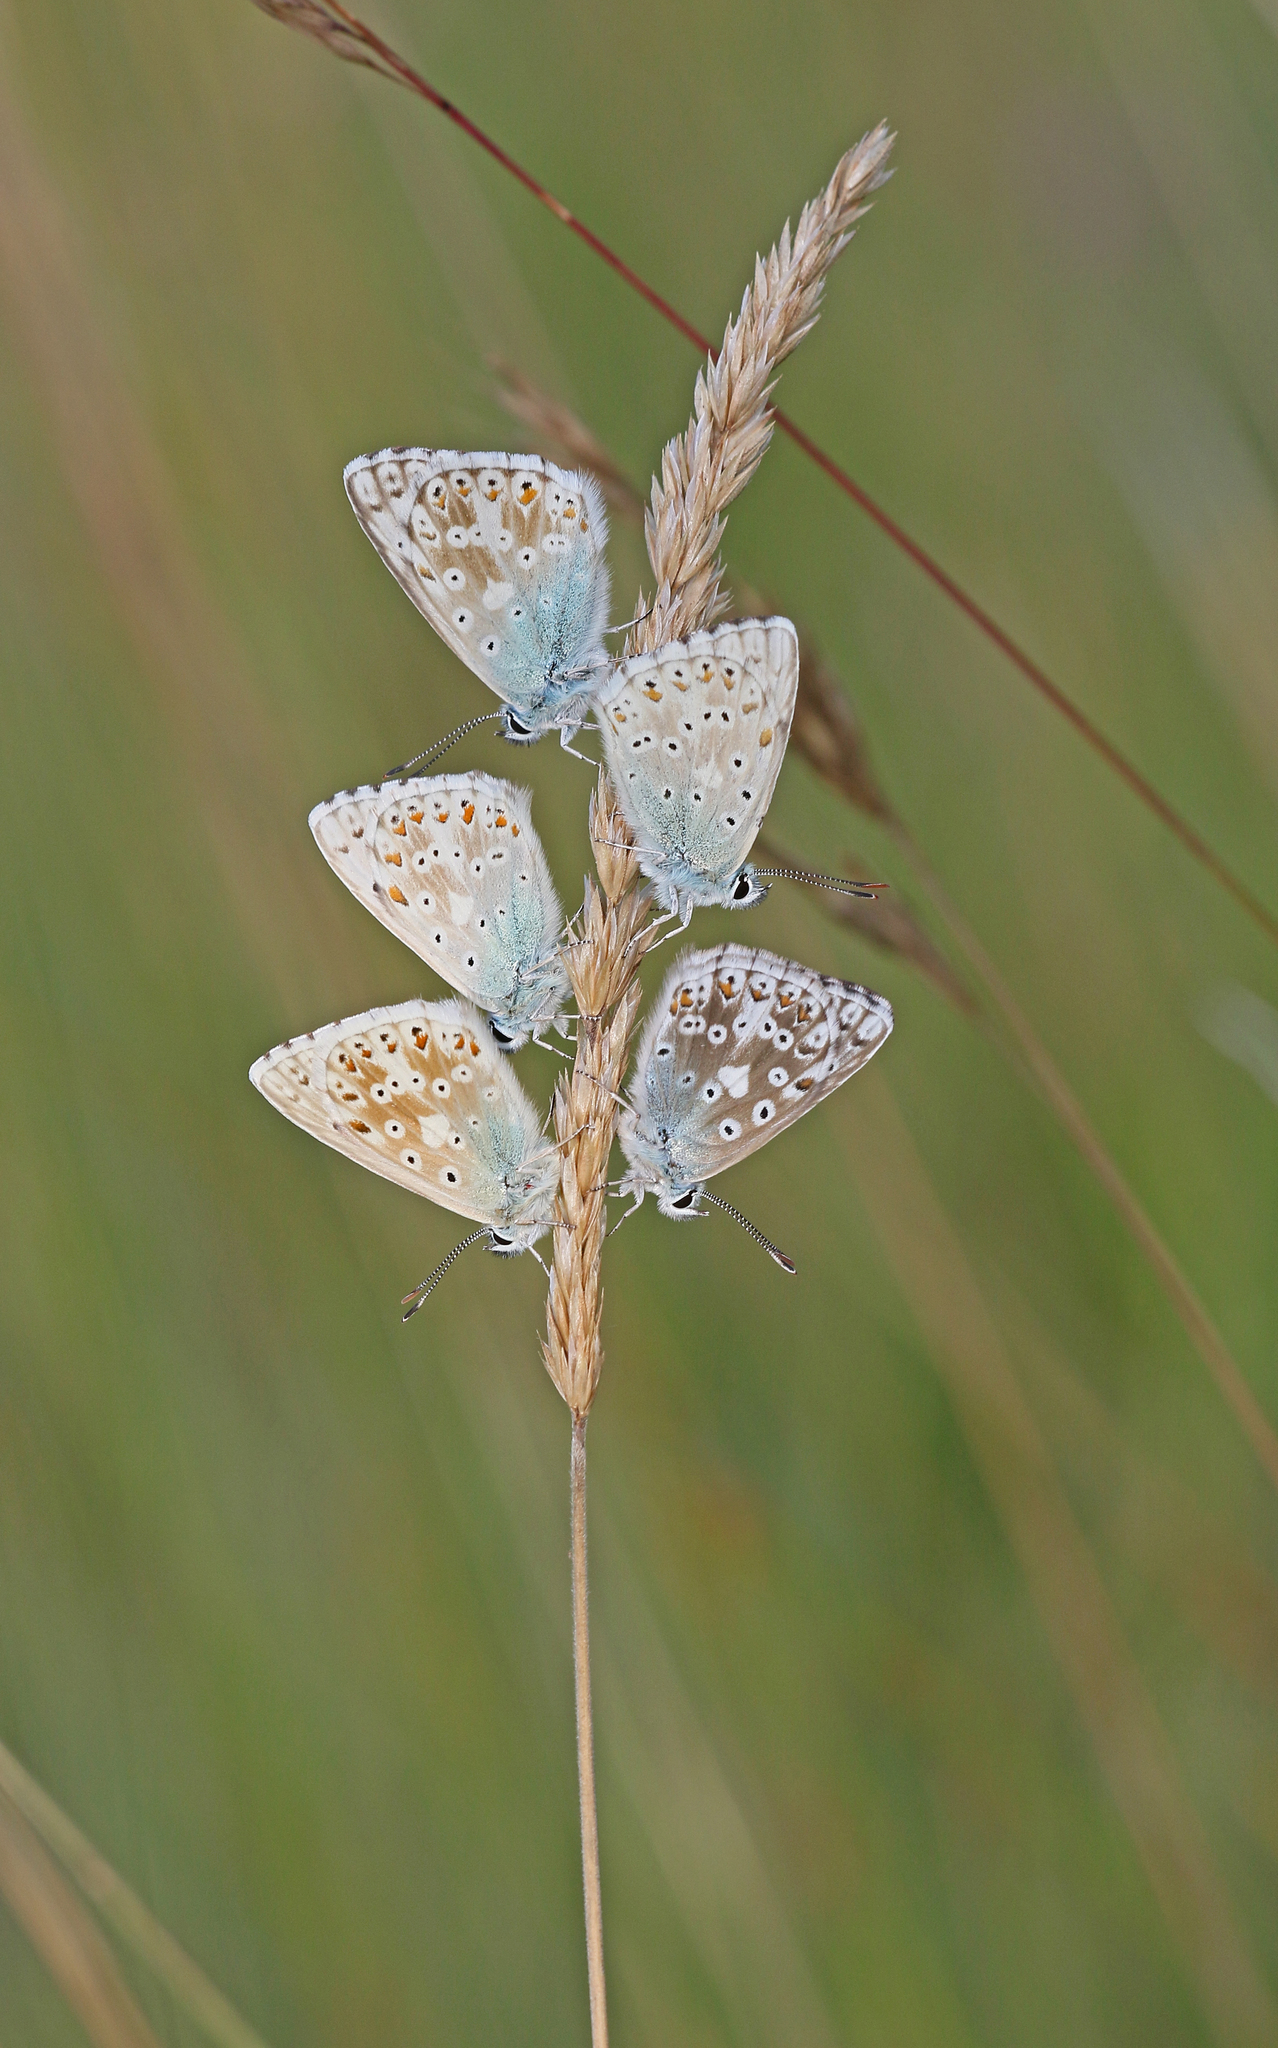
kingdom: Animalia
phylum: Arthropoda
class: Insecta
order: Lepidoptera
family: Lycaenidae
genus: Lysandra
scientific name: Lysandra coridon
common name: Chalkhill blue
